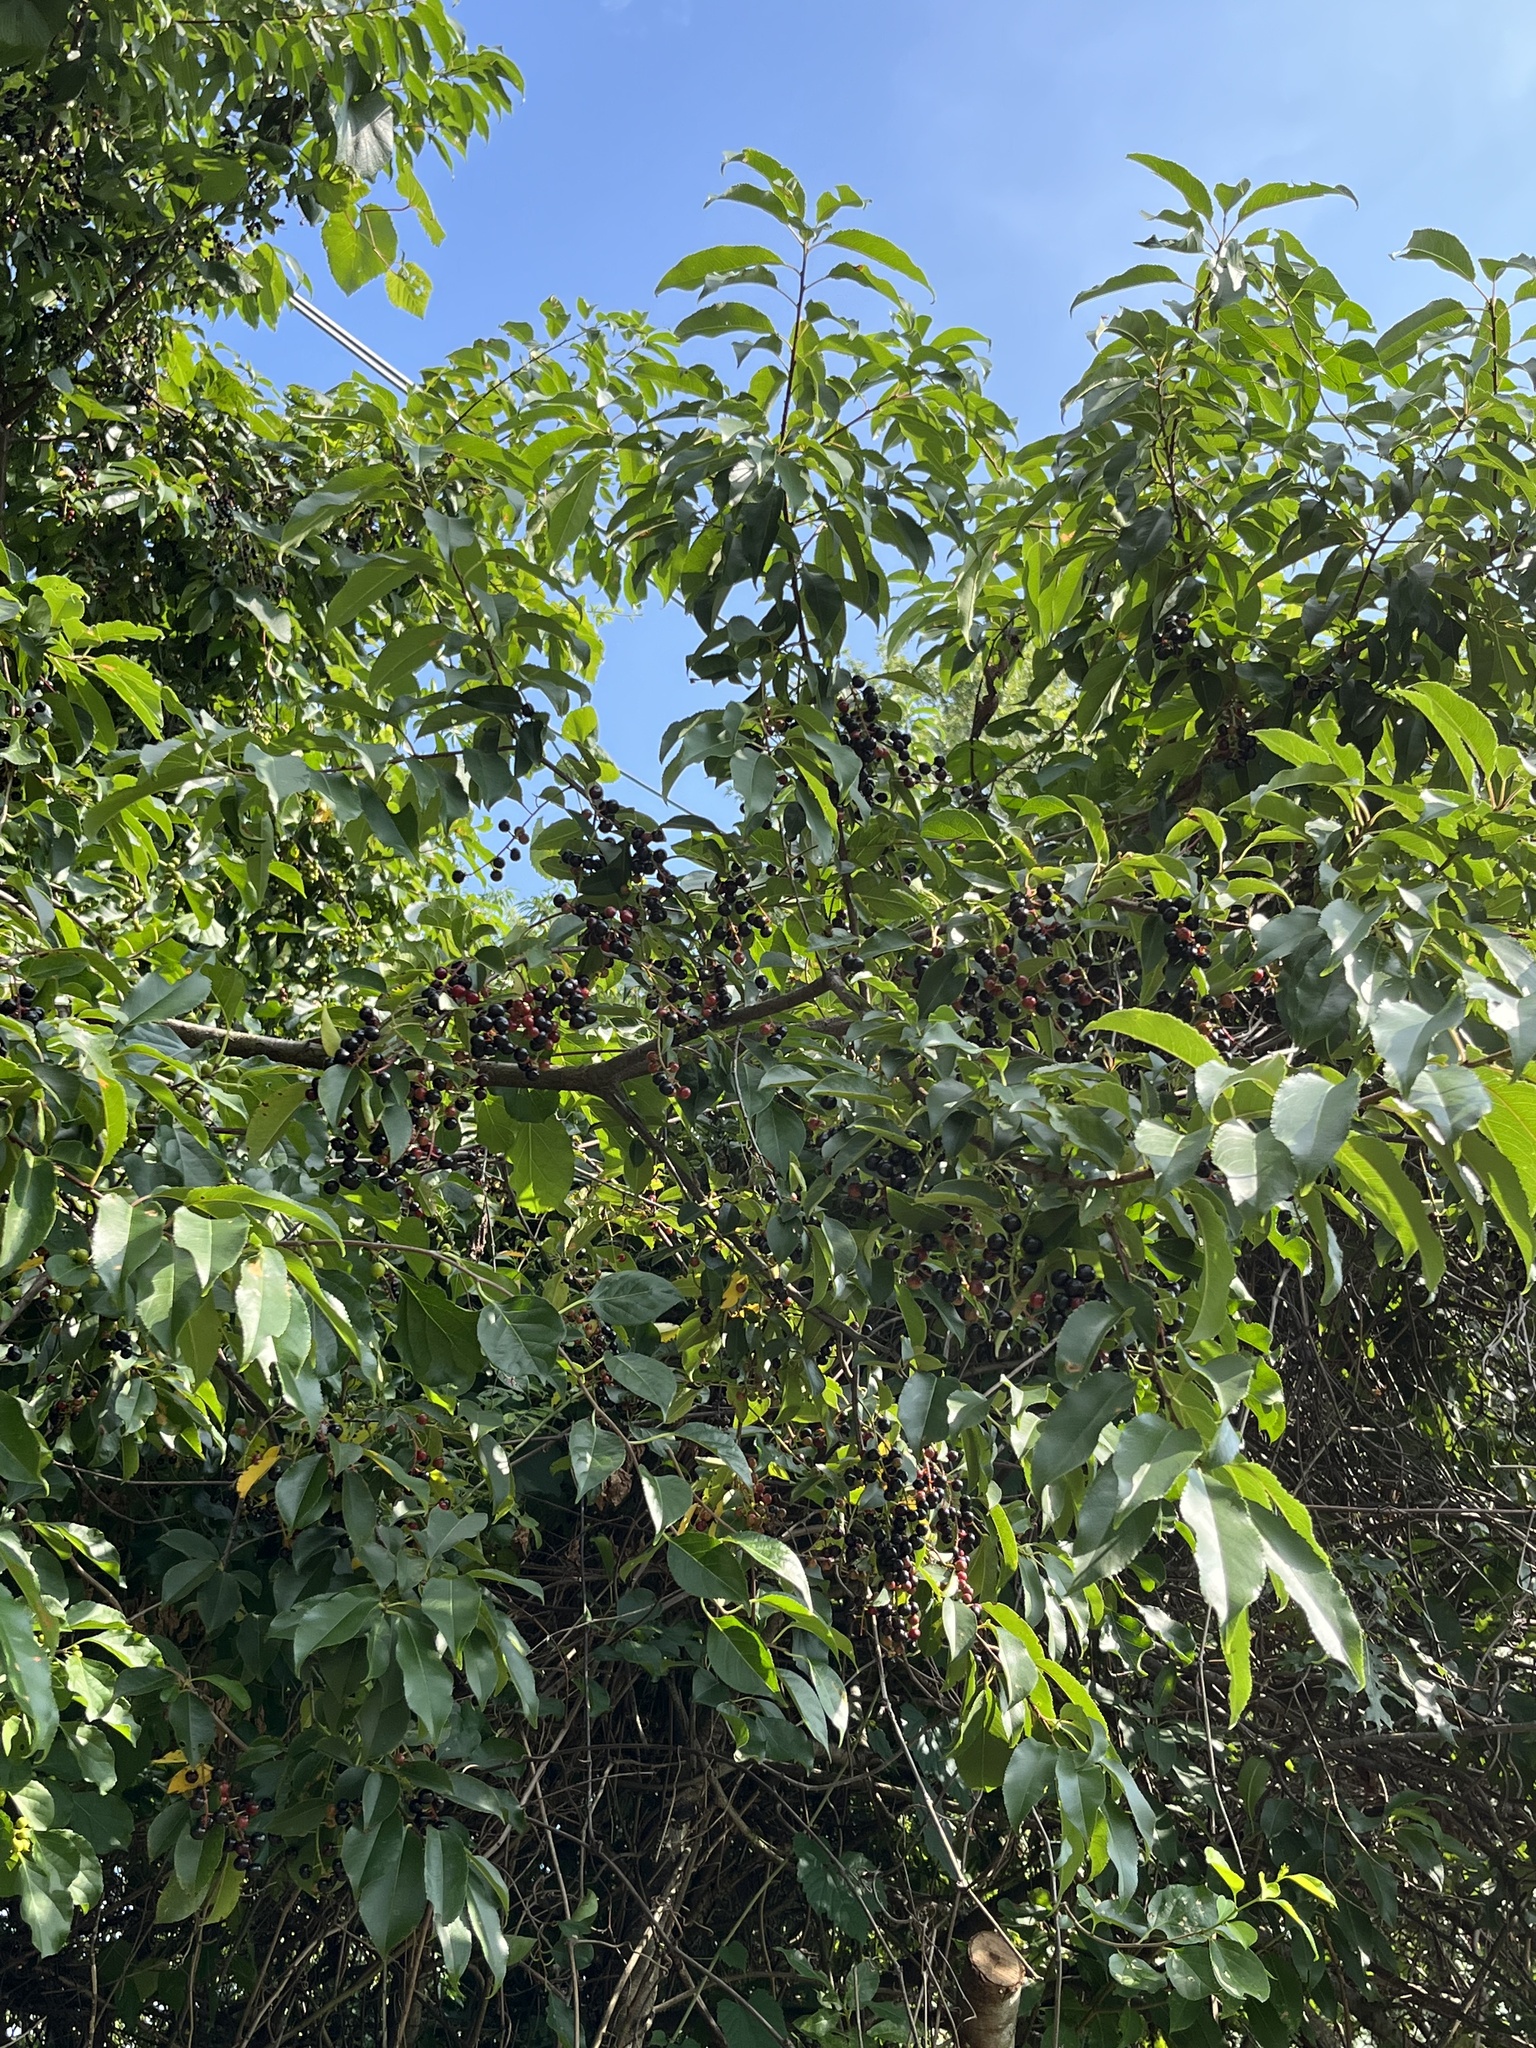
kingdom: Plantae
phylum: Tracheophyta
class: Magnoliopsida
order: Rosales
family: Rosaceae
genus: Prunus
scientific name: Prunus serotina
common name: Black cherry
